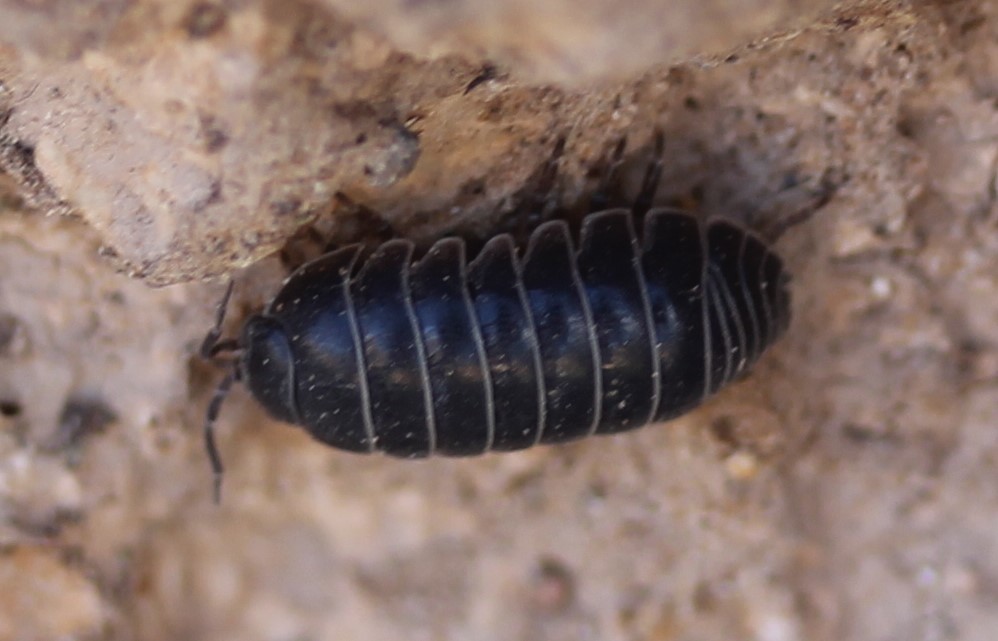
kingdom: Animalia
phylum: Arthropoda
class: Malacostraca
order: Isopoda
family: Armadillidiidae
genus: Armadillidium
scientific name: Armadillidium vulgare
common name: Common pill woodlouse
